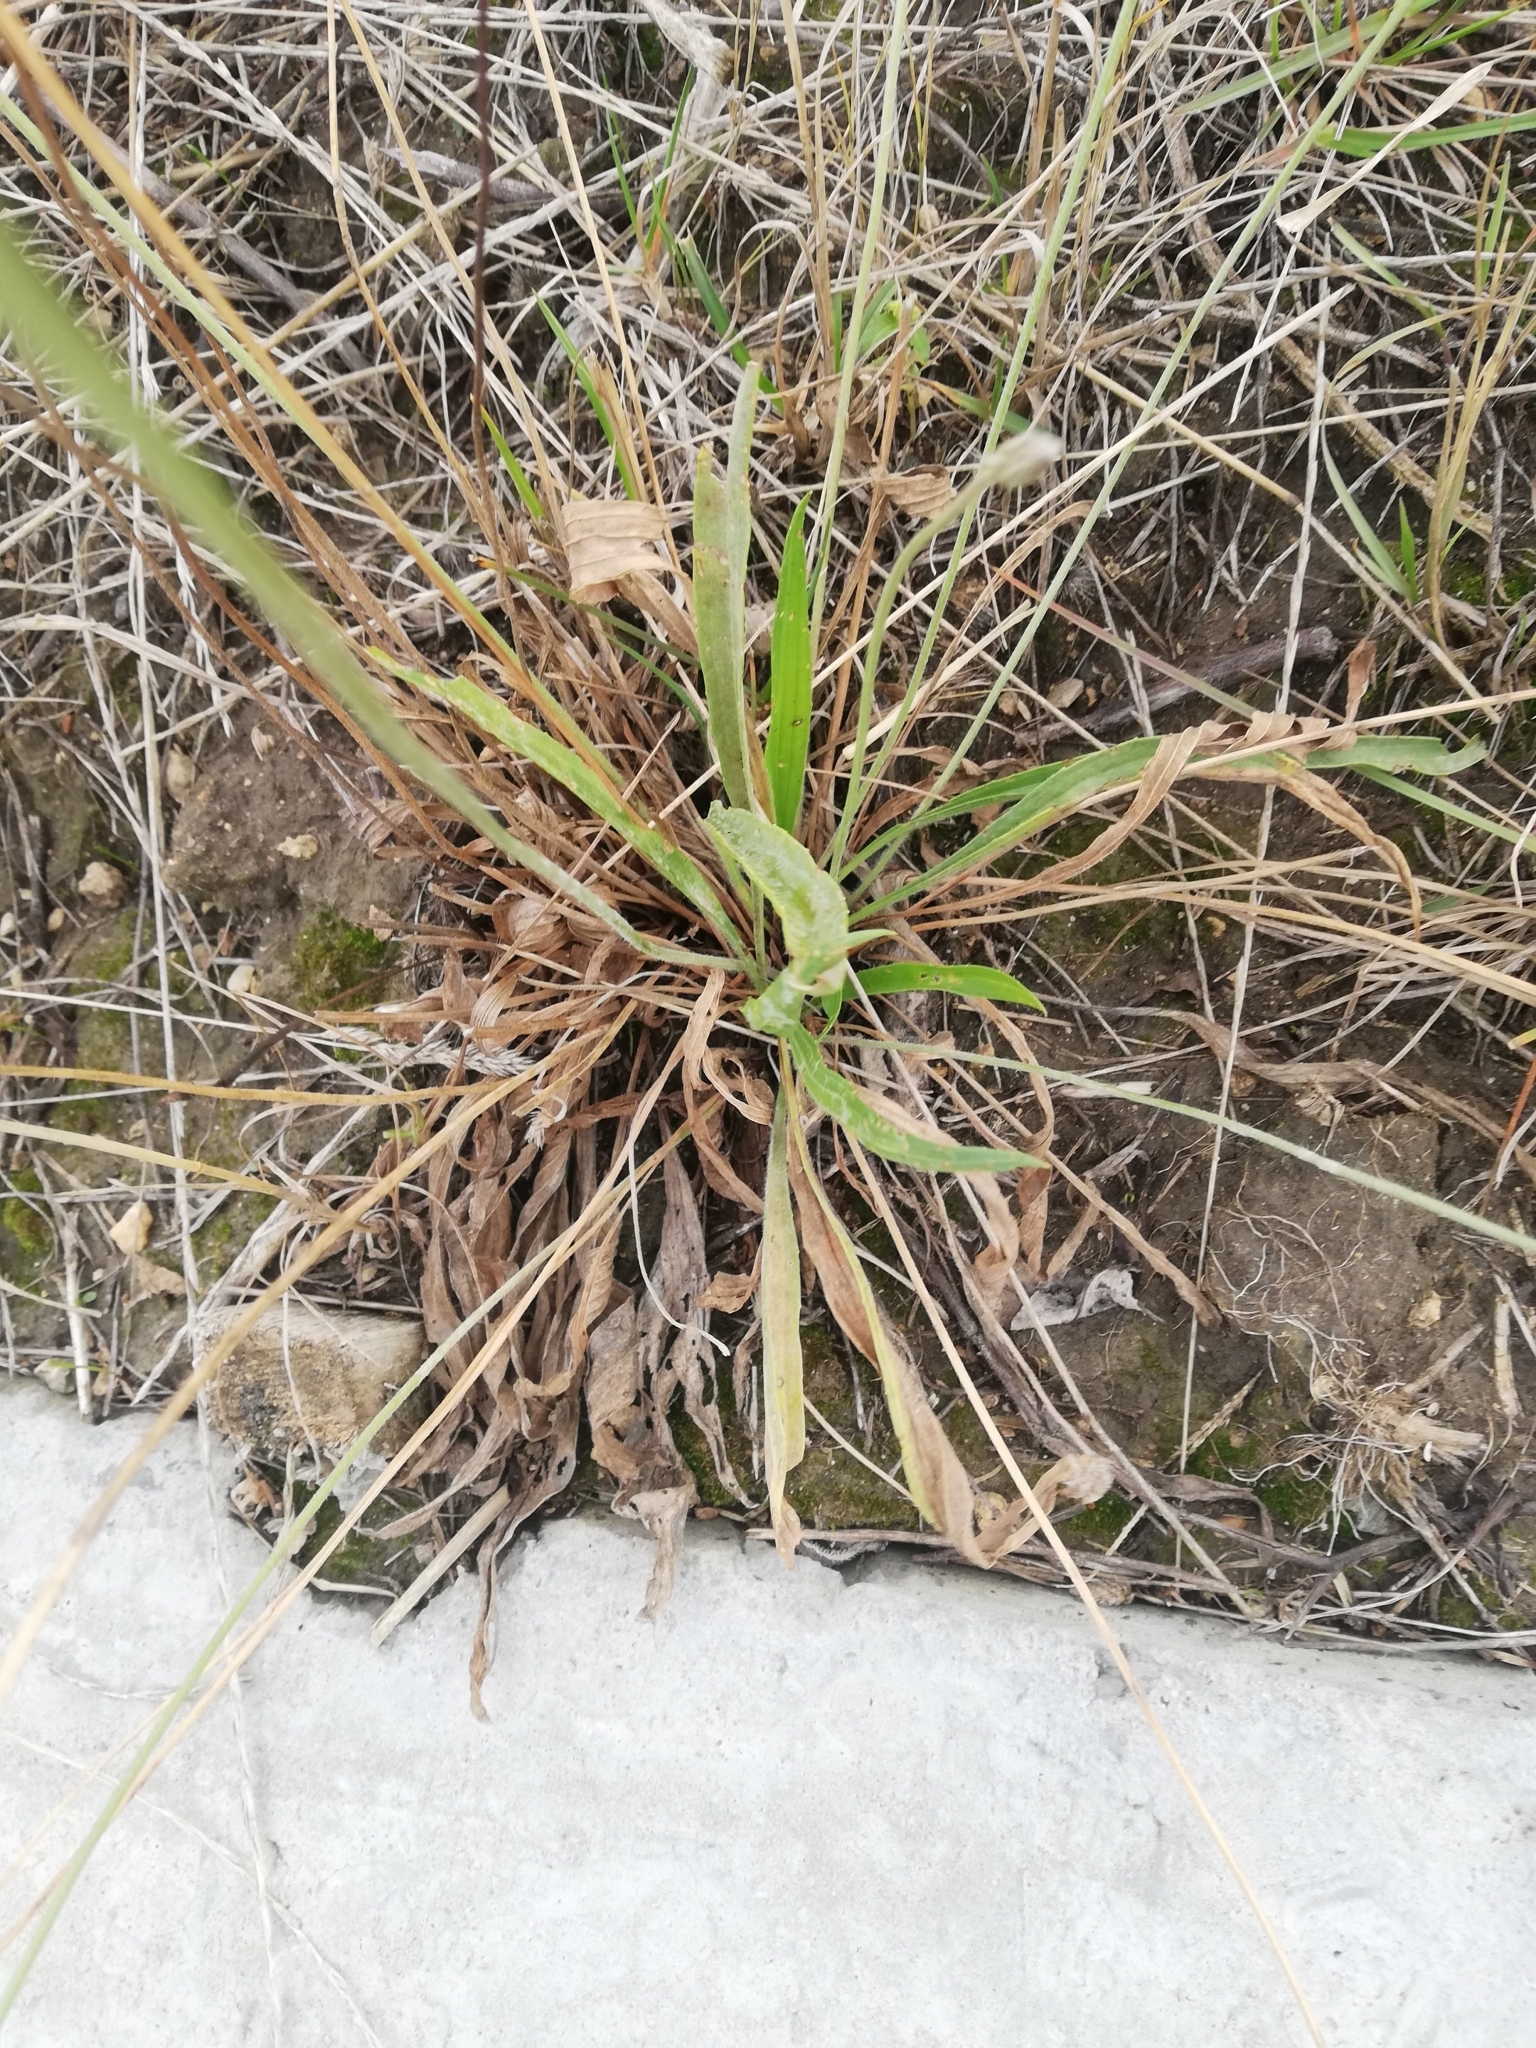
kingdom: Plantae
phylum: Tracheophyta
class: Magnoliopsida
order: Lamiales
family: Plantaginaceae
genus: Plantago
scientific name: Plantago lanceolata
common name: Ribwort plantain
